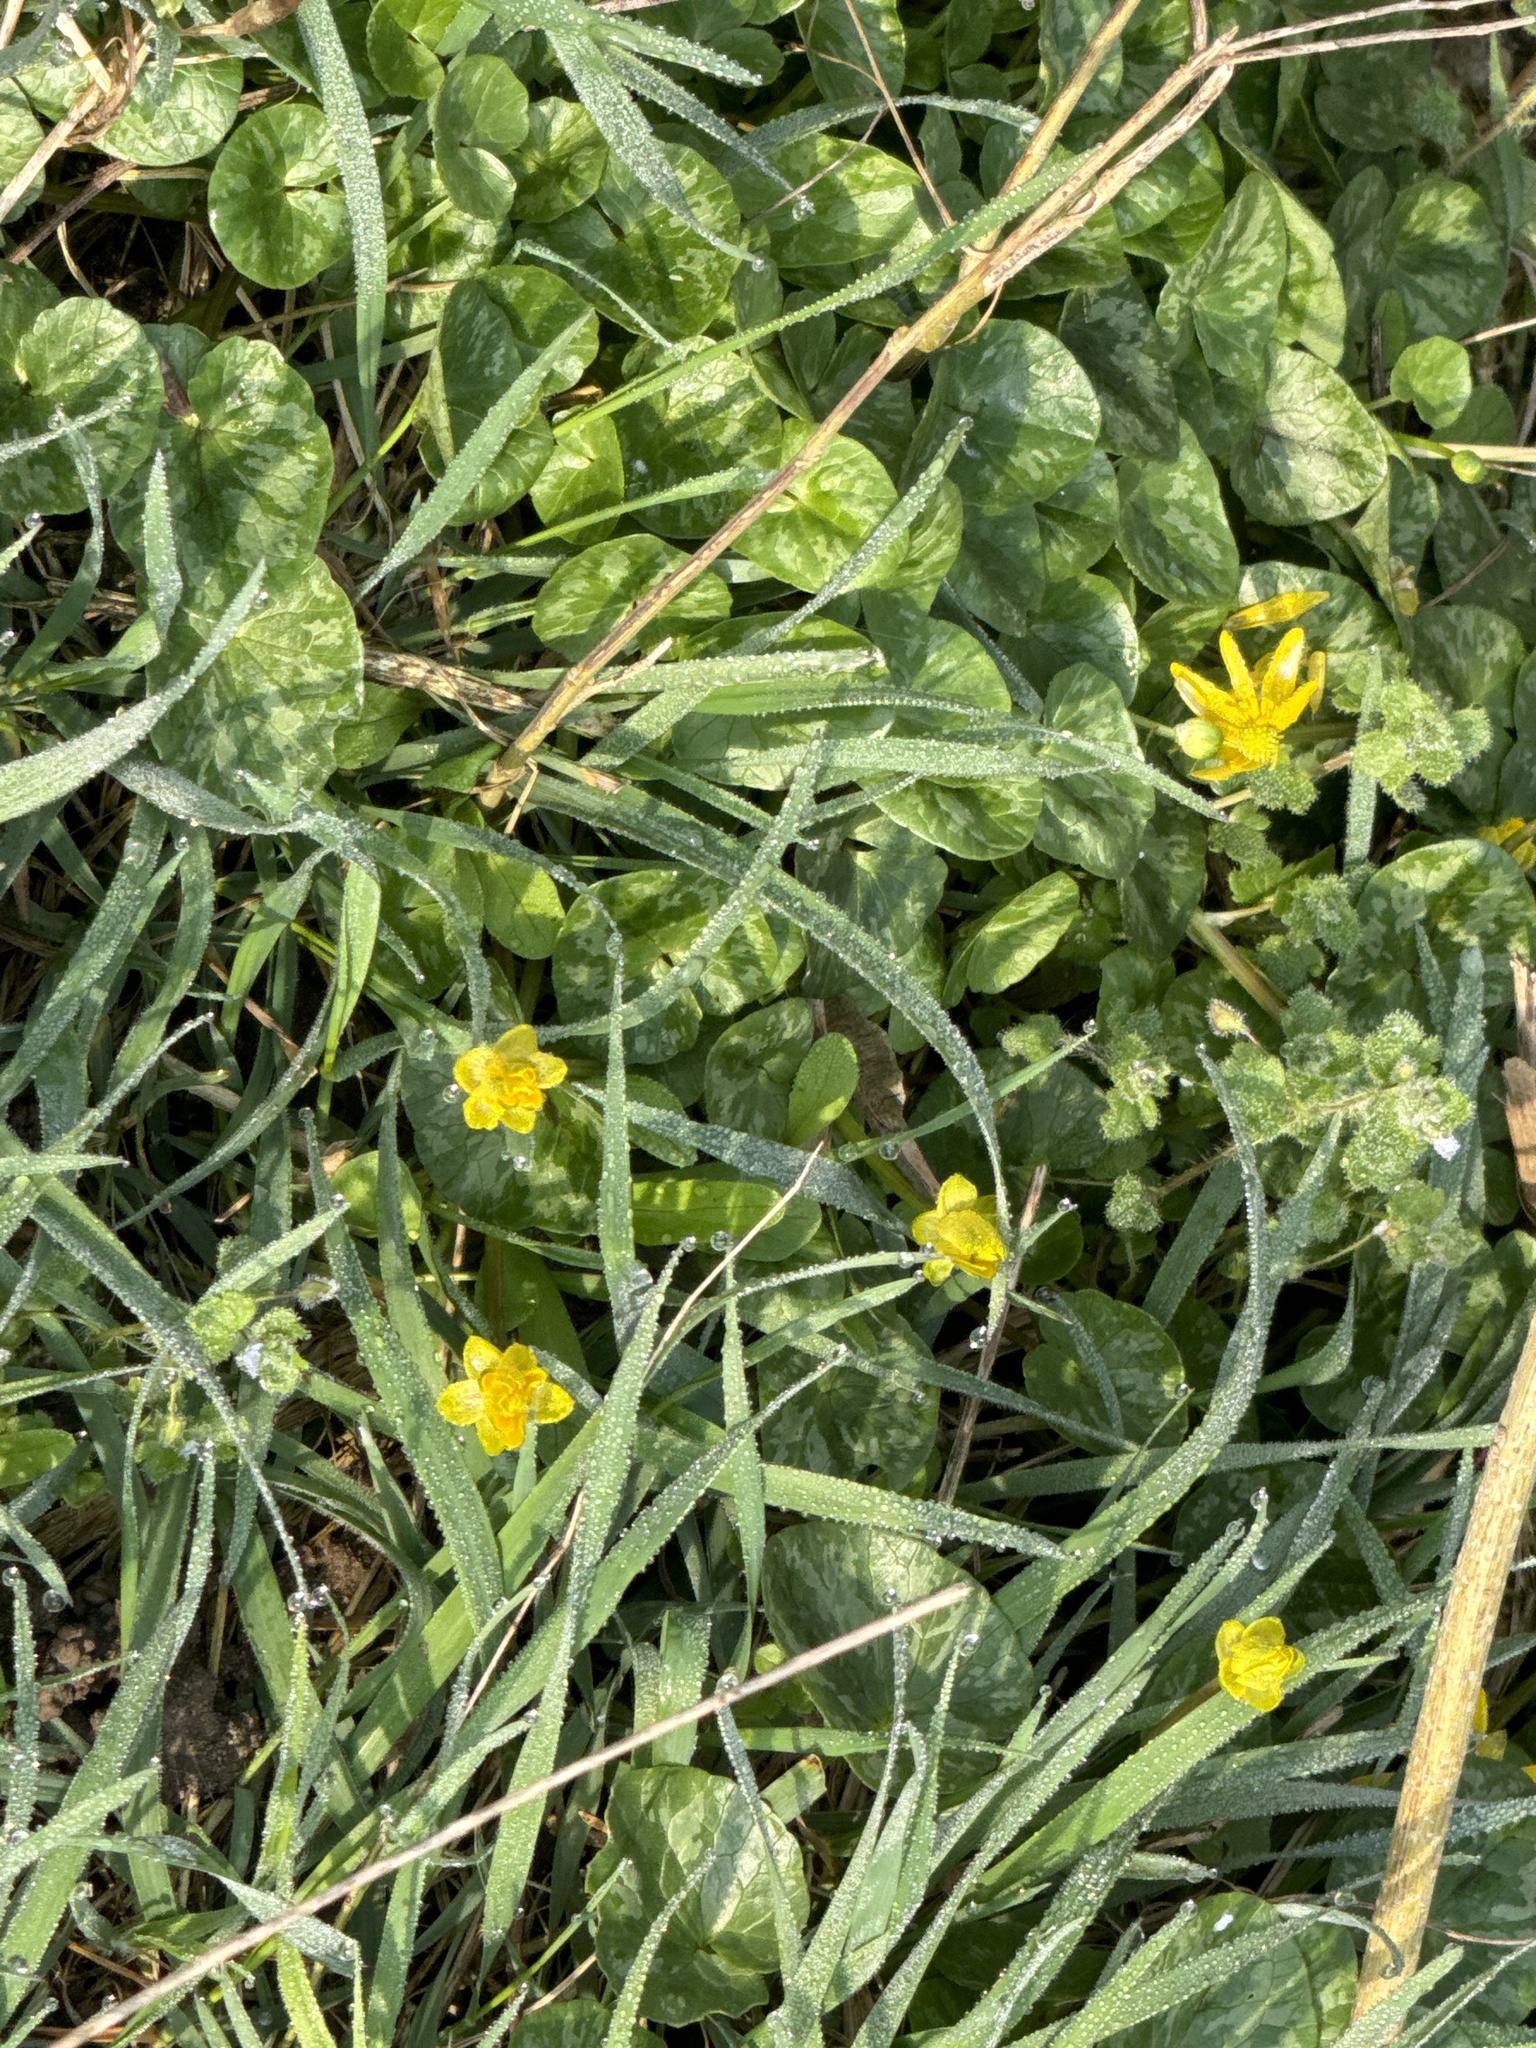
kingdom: Plantae
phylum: Tracheophyta
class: Magnoliopsida
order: Ranunculales
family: Ranunculaceae
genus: Ficaria
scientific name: Ficaria verna
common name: Lesser celandine
